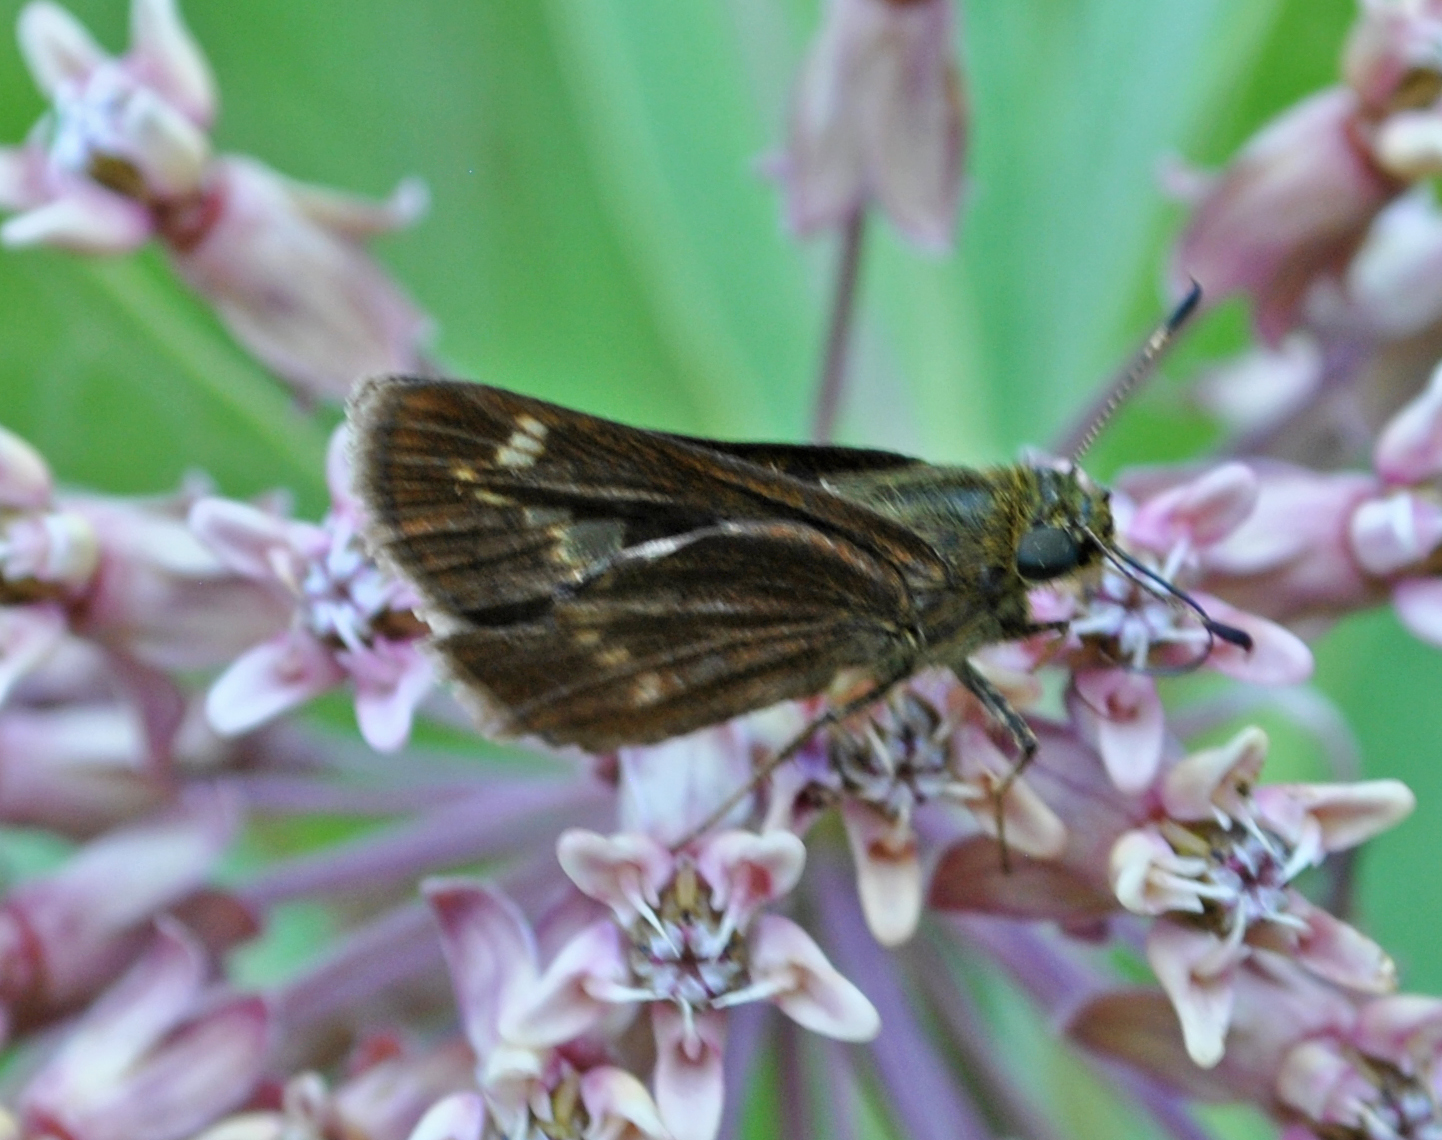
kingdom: Animalia
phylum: Arthropoda
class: Insecta
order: Lepidoptera
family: Hesperiidae
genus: Vernia
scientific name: Vernia verna
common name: Little glassywing
